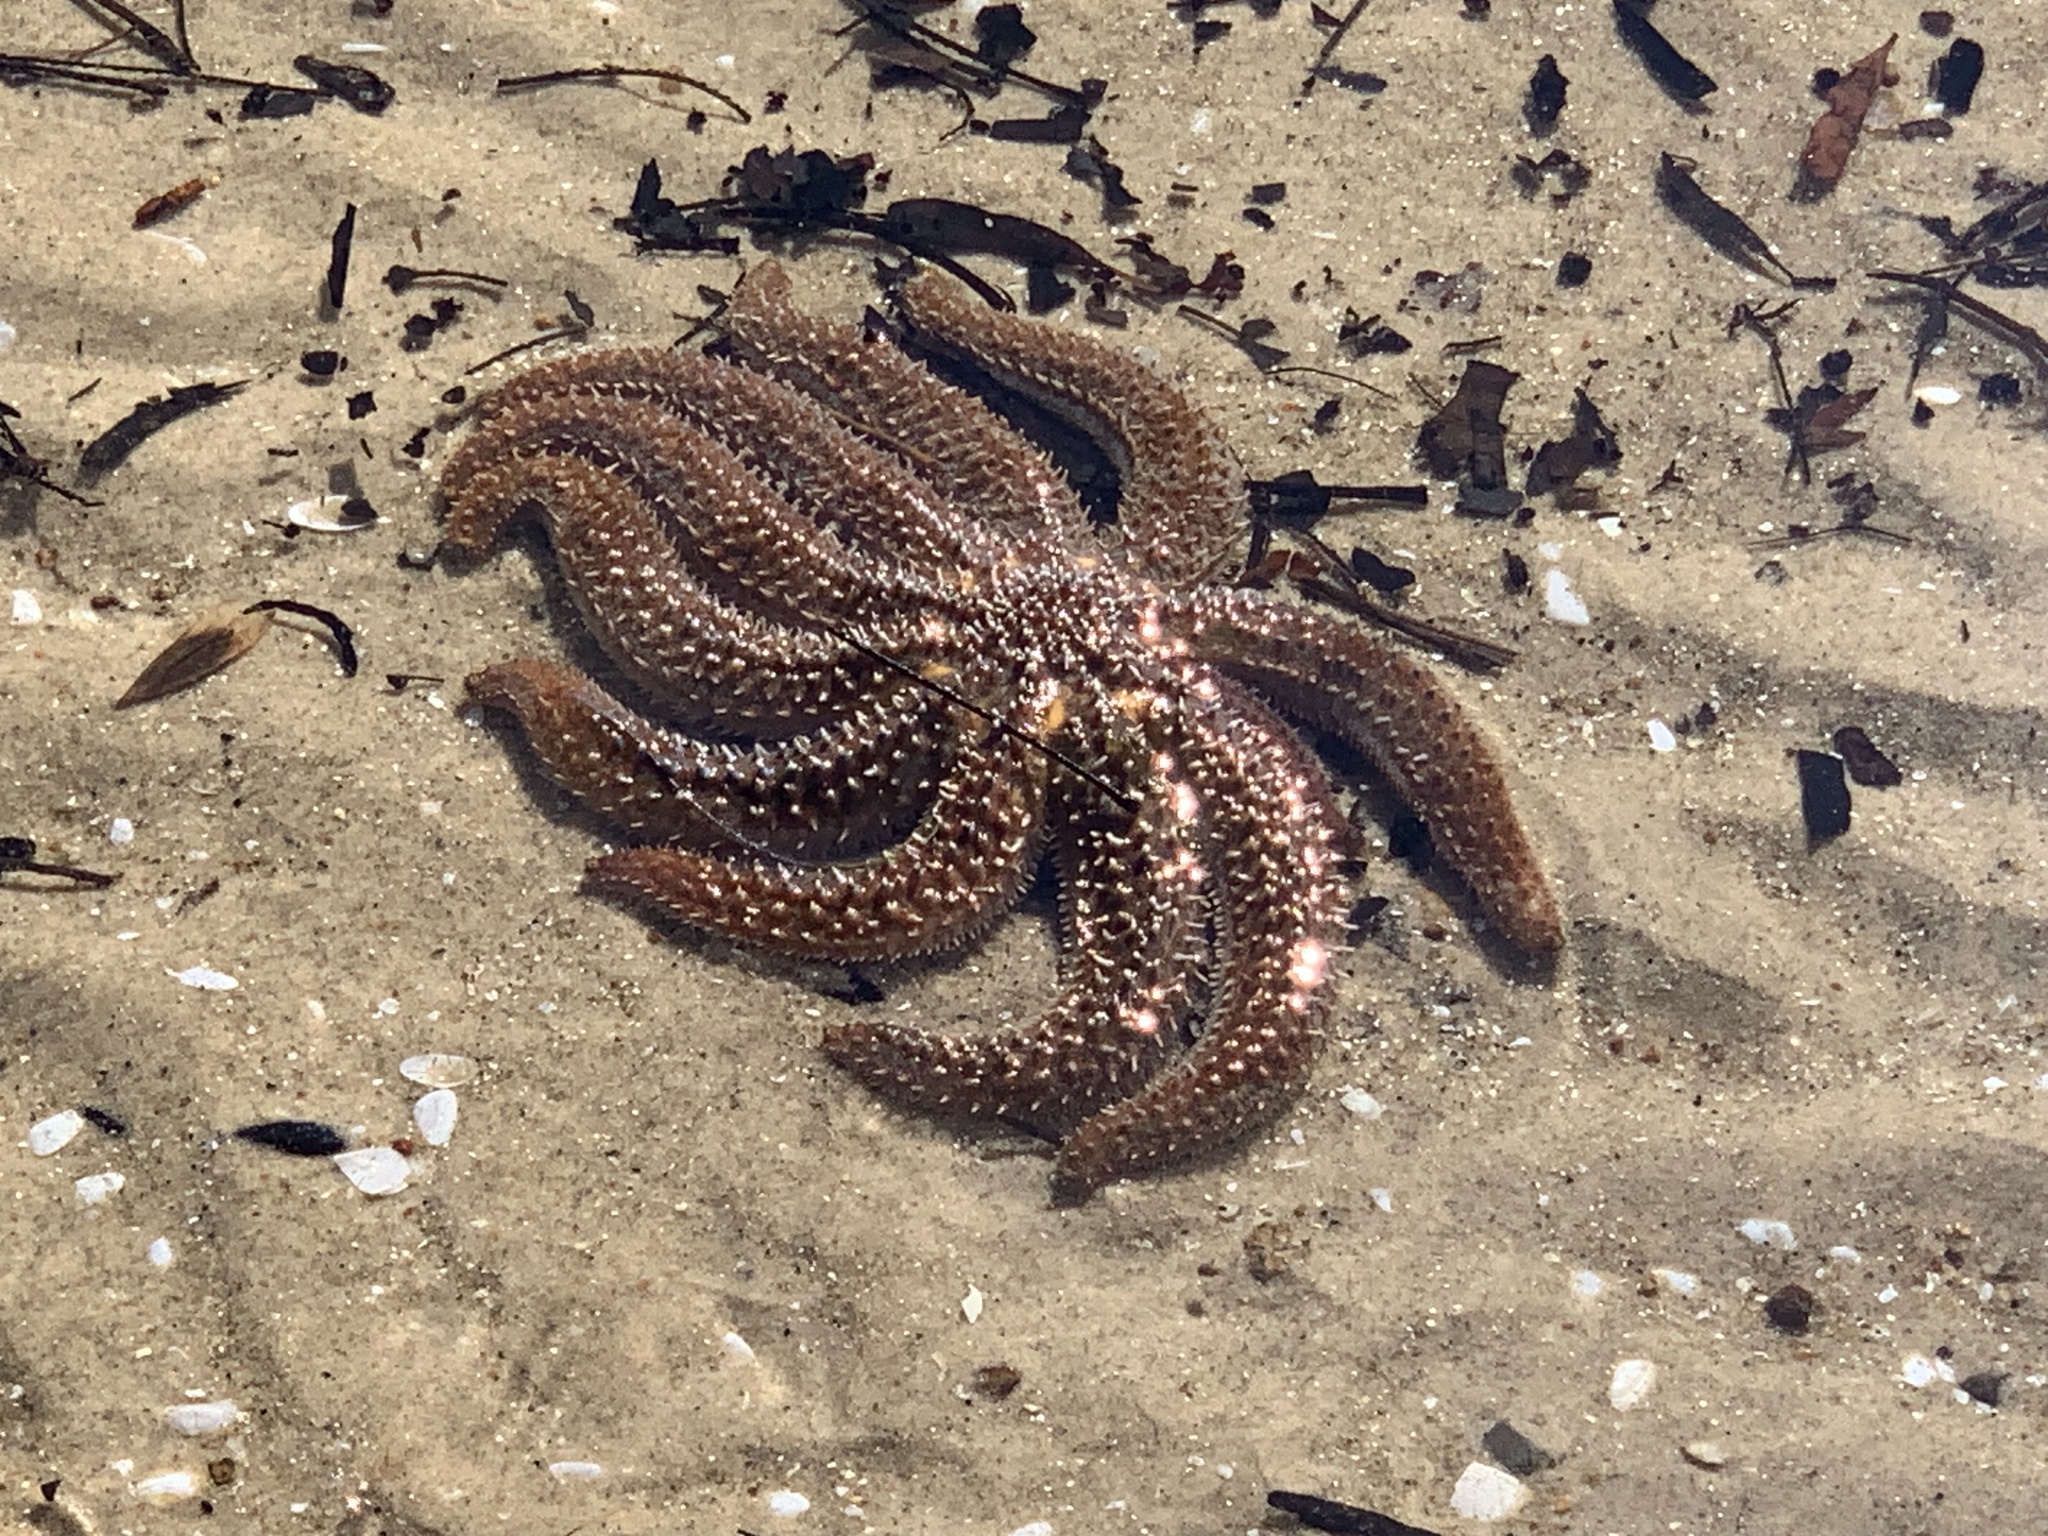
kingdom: Animalia
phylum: Echinodermata
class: Asteroidea
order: Forcipulatida
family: Asteriidae
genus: Coscinasterias
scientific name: Coscinasterias muricata
